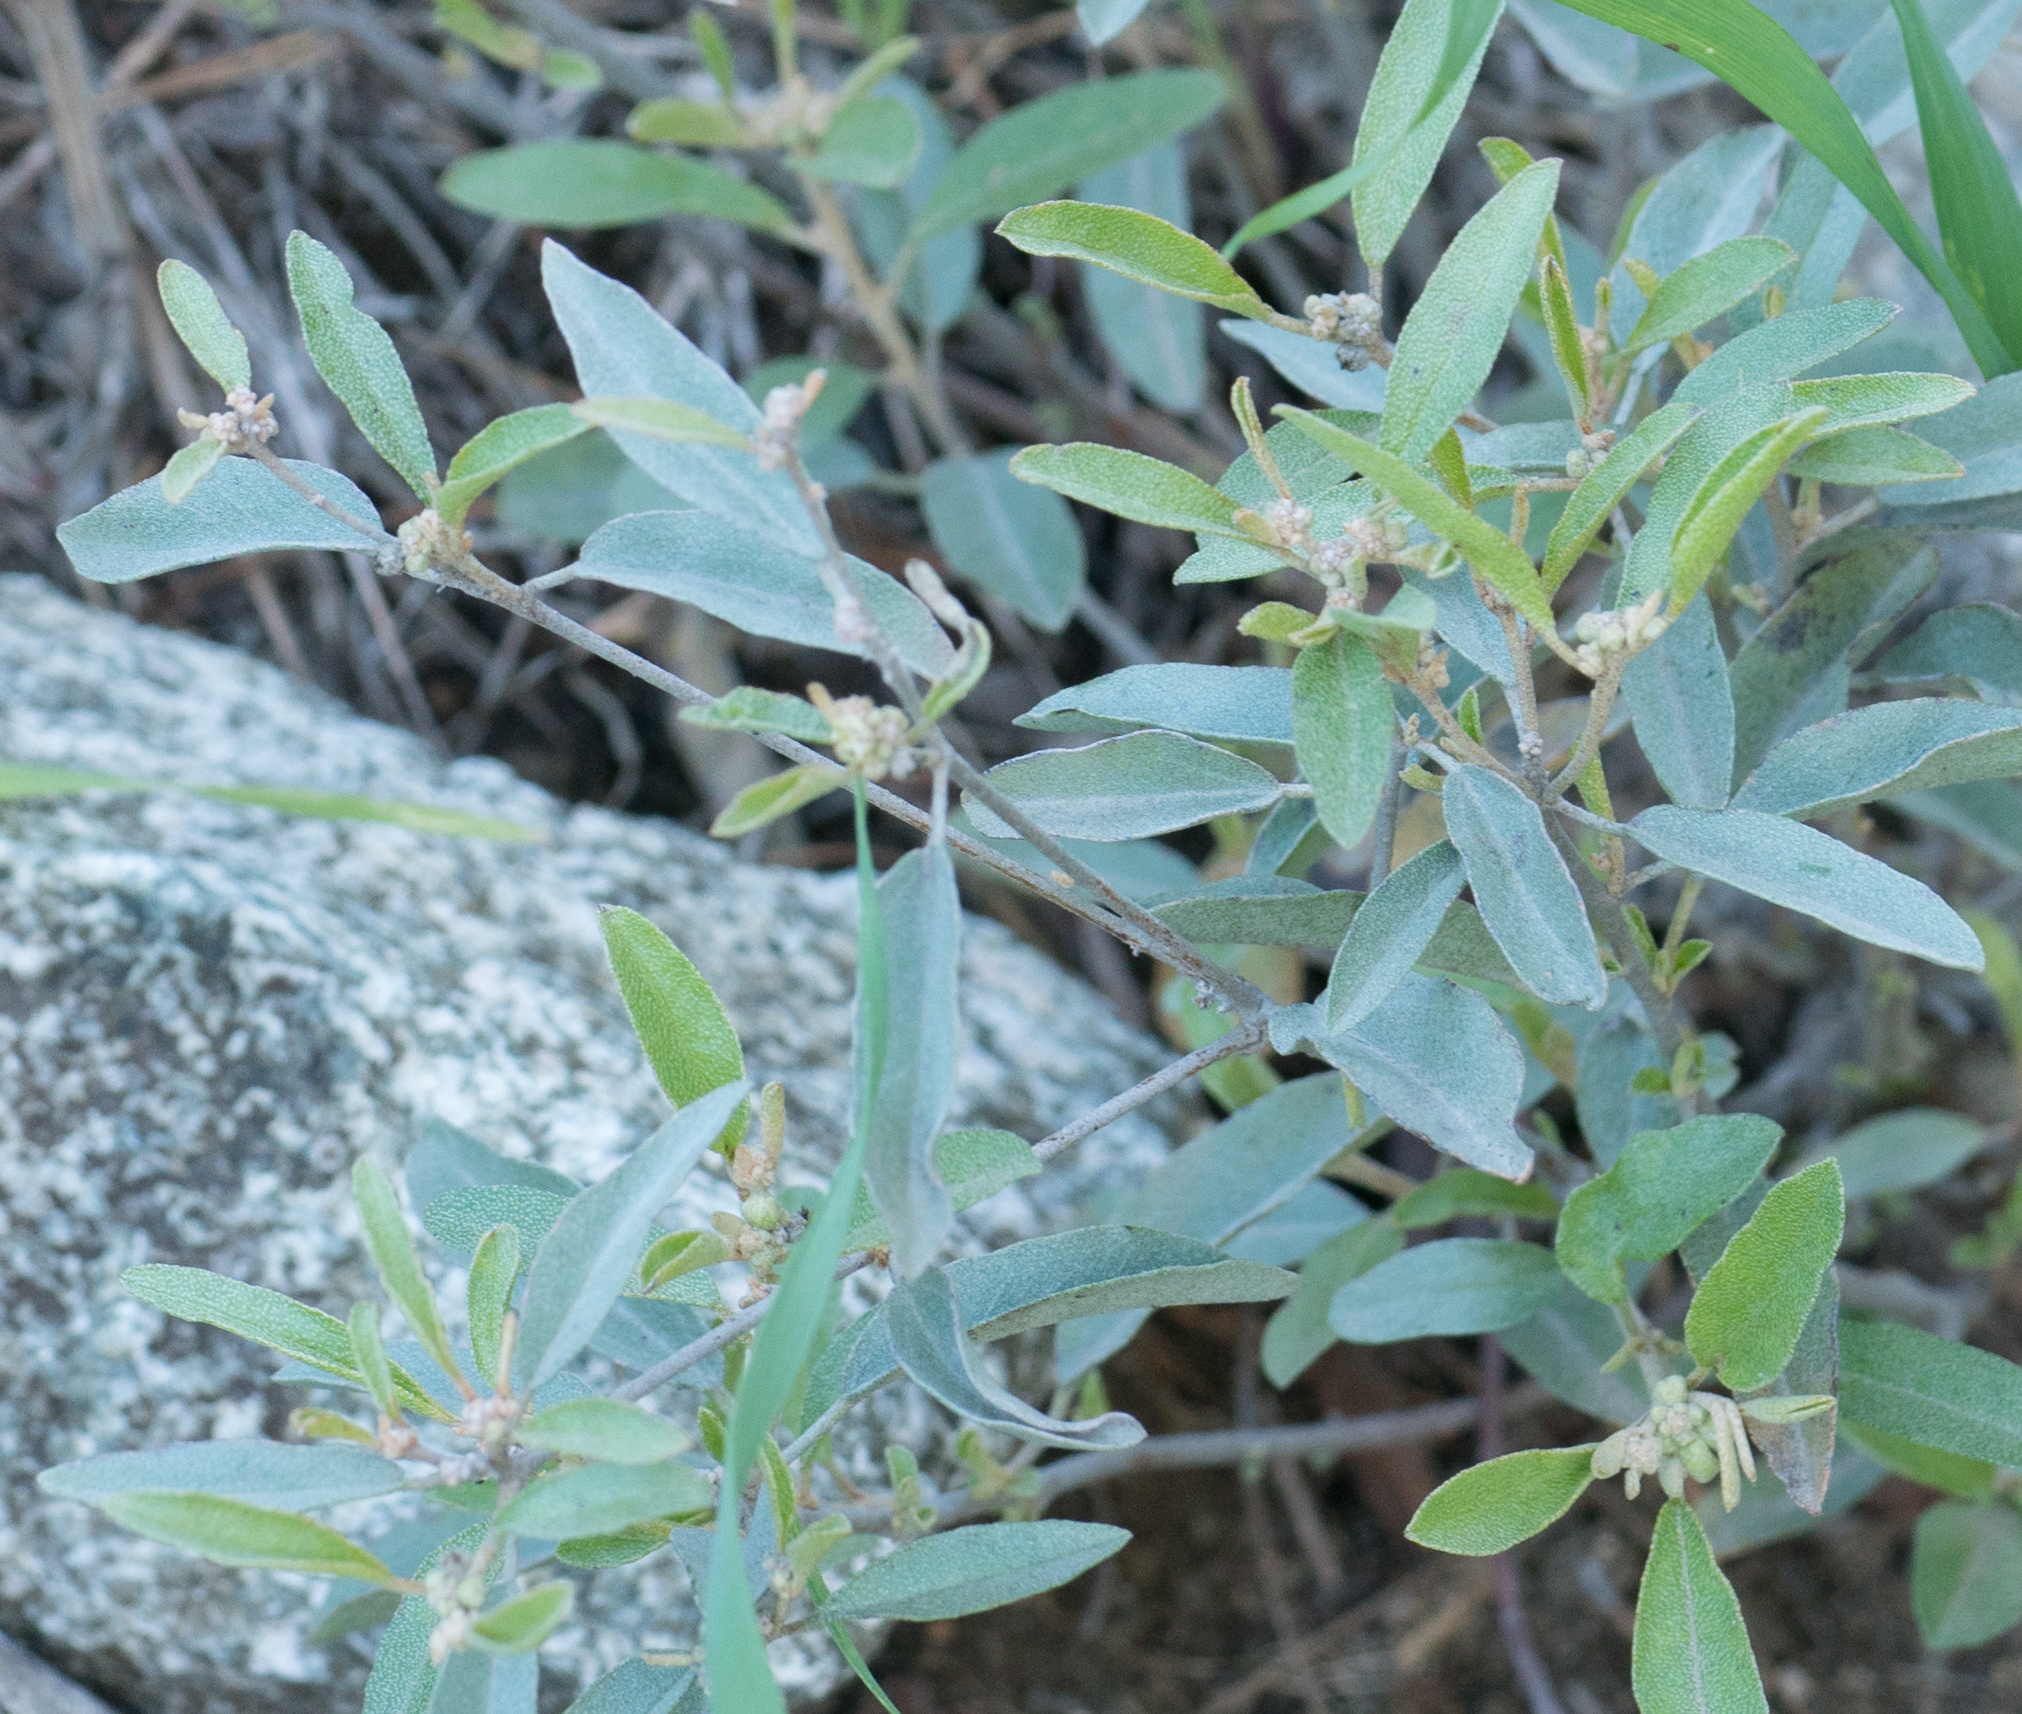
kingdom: Plantae
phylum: Tracheophyta
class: Magnoliopsida
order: Malpighiales
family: Euphorbiaceae
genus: Croton
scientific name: Croton californicus
